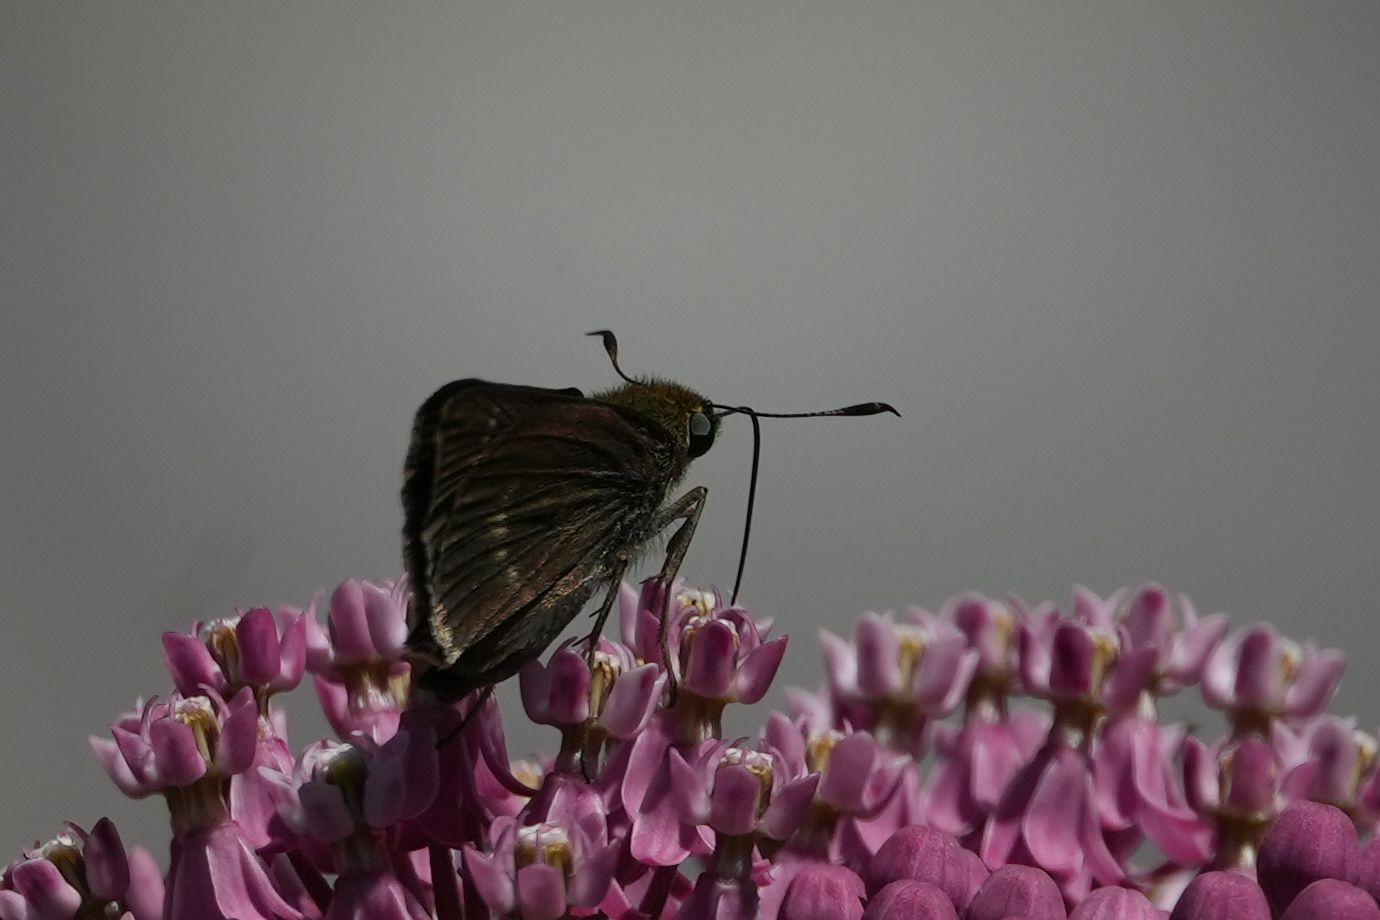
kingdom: Animalia
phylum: Arthropoda
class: Insecta
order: Lepidoptera
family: Hesperiidae
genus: Euphyes
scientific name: Euphyes vestris
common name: Dun skipper
